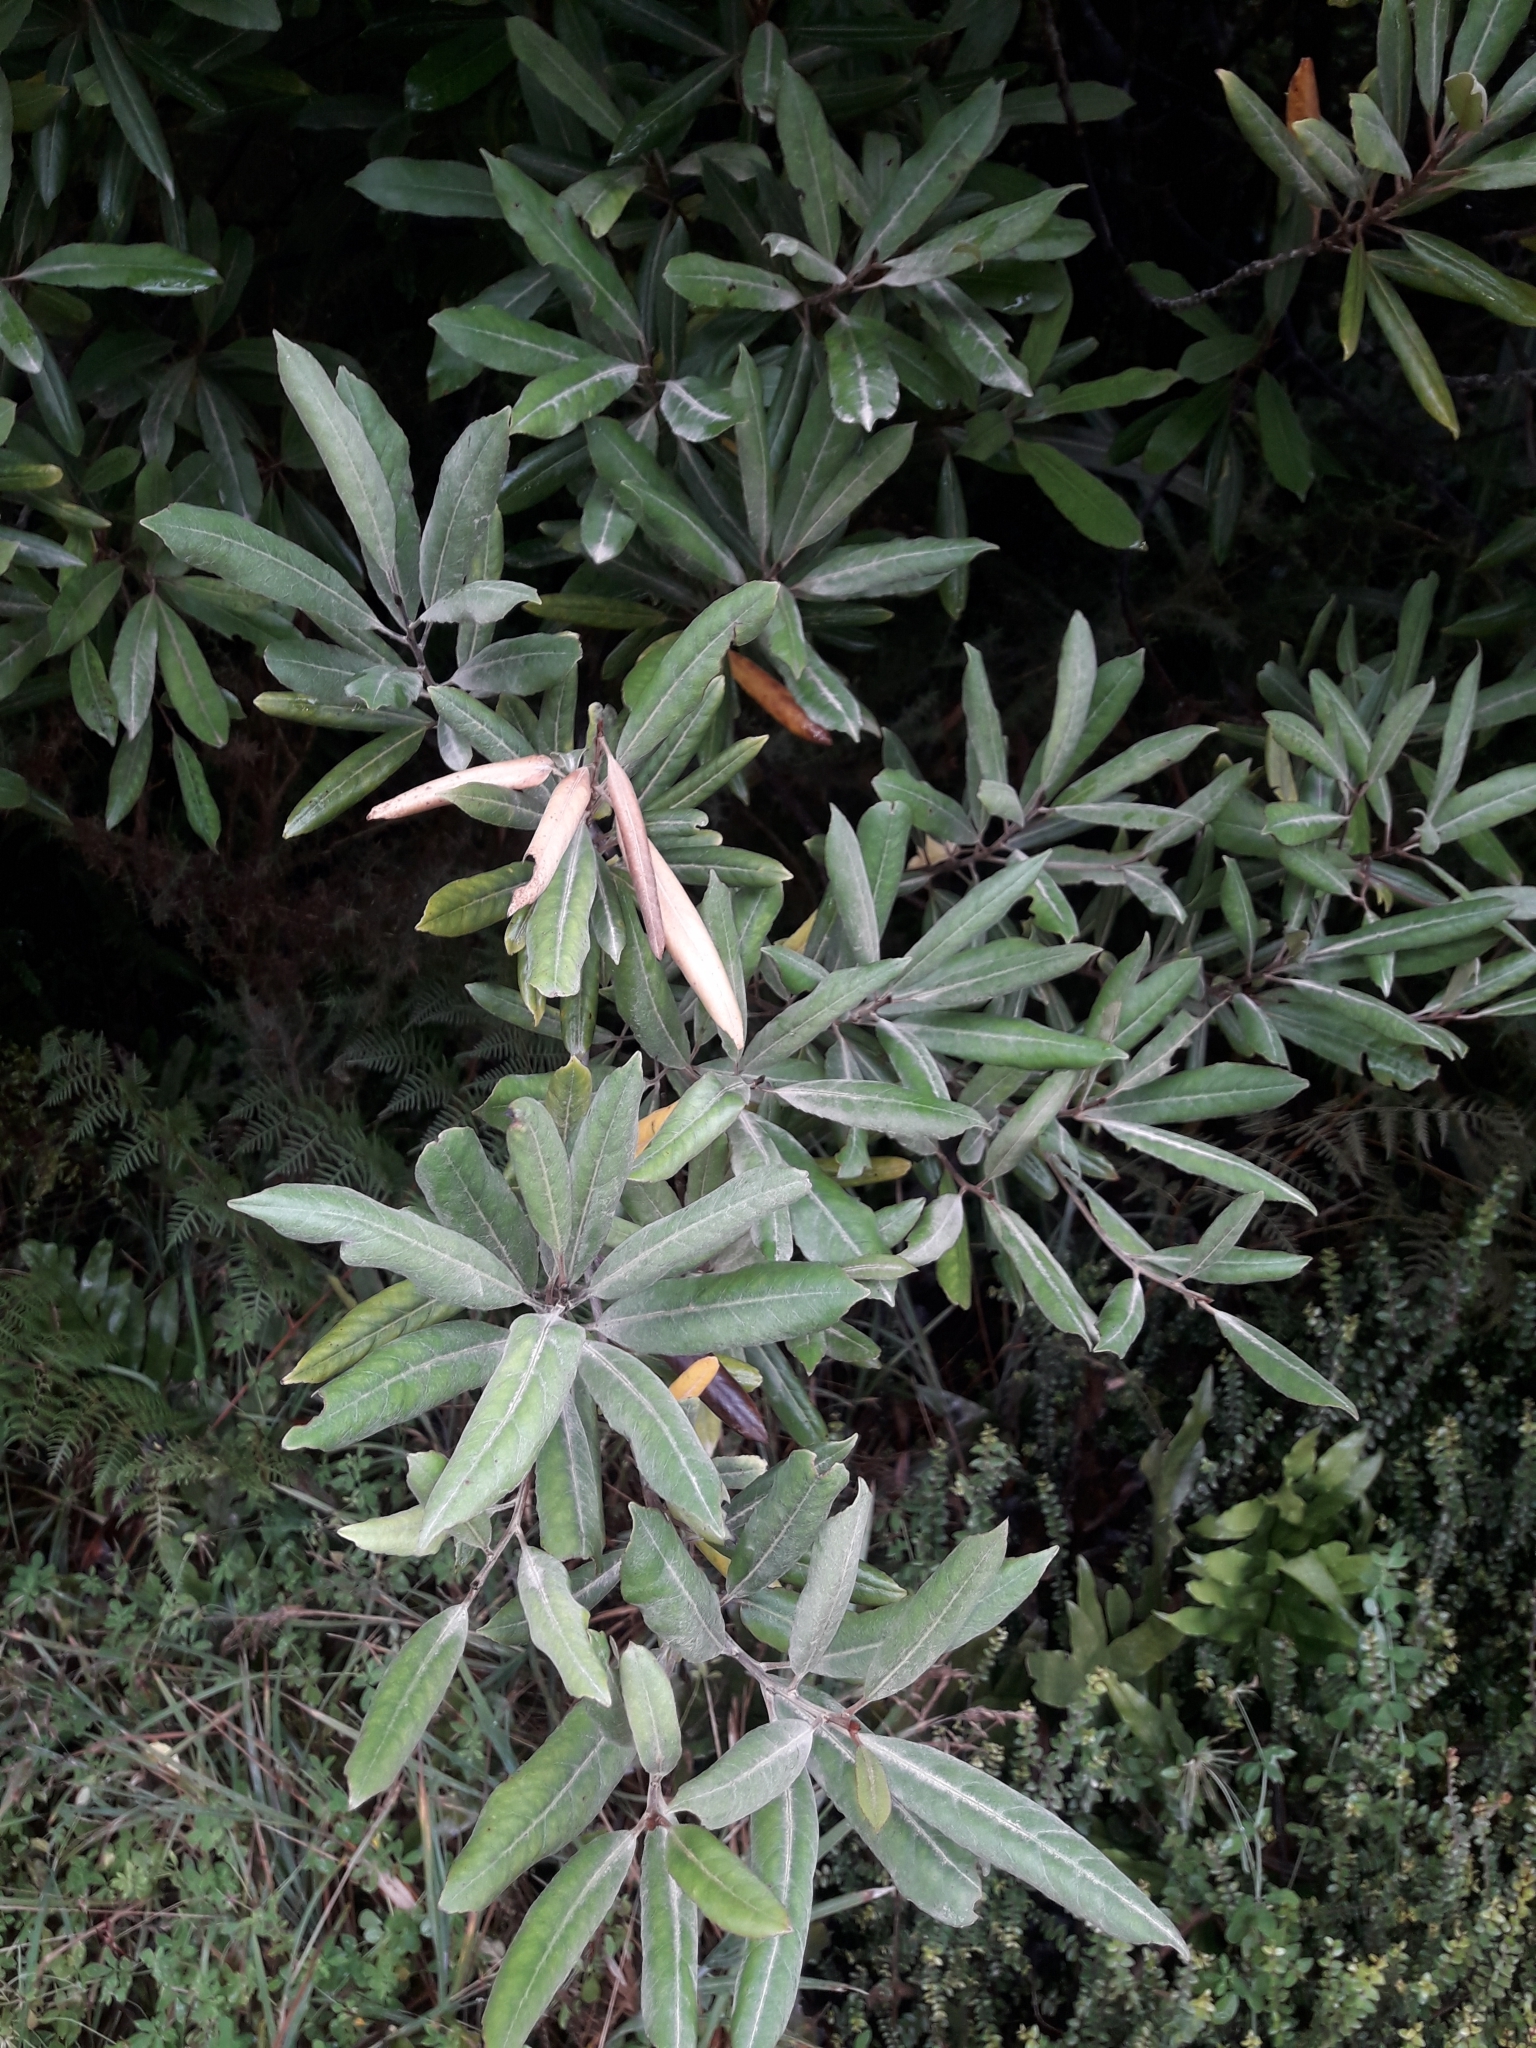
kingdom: Plantae
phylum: Tracheophyta
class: Magnoliopsida
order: Oxalidales
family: Elaeocarpaceae
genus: Elaeocarpus
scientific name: Elaeocarpus dentatus
